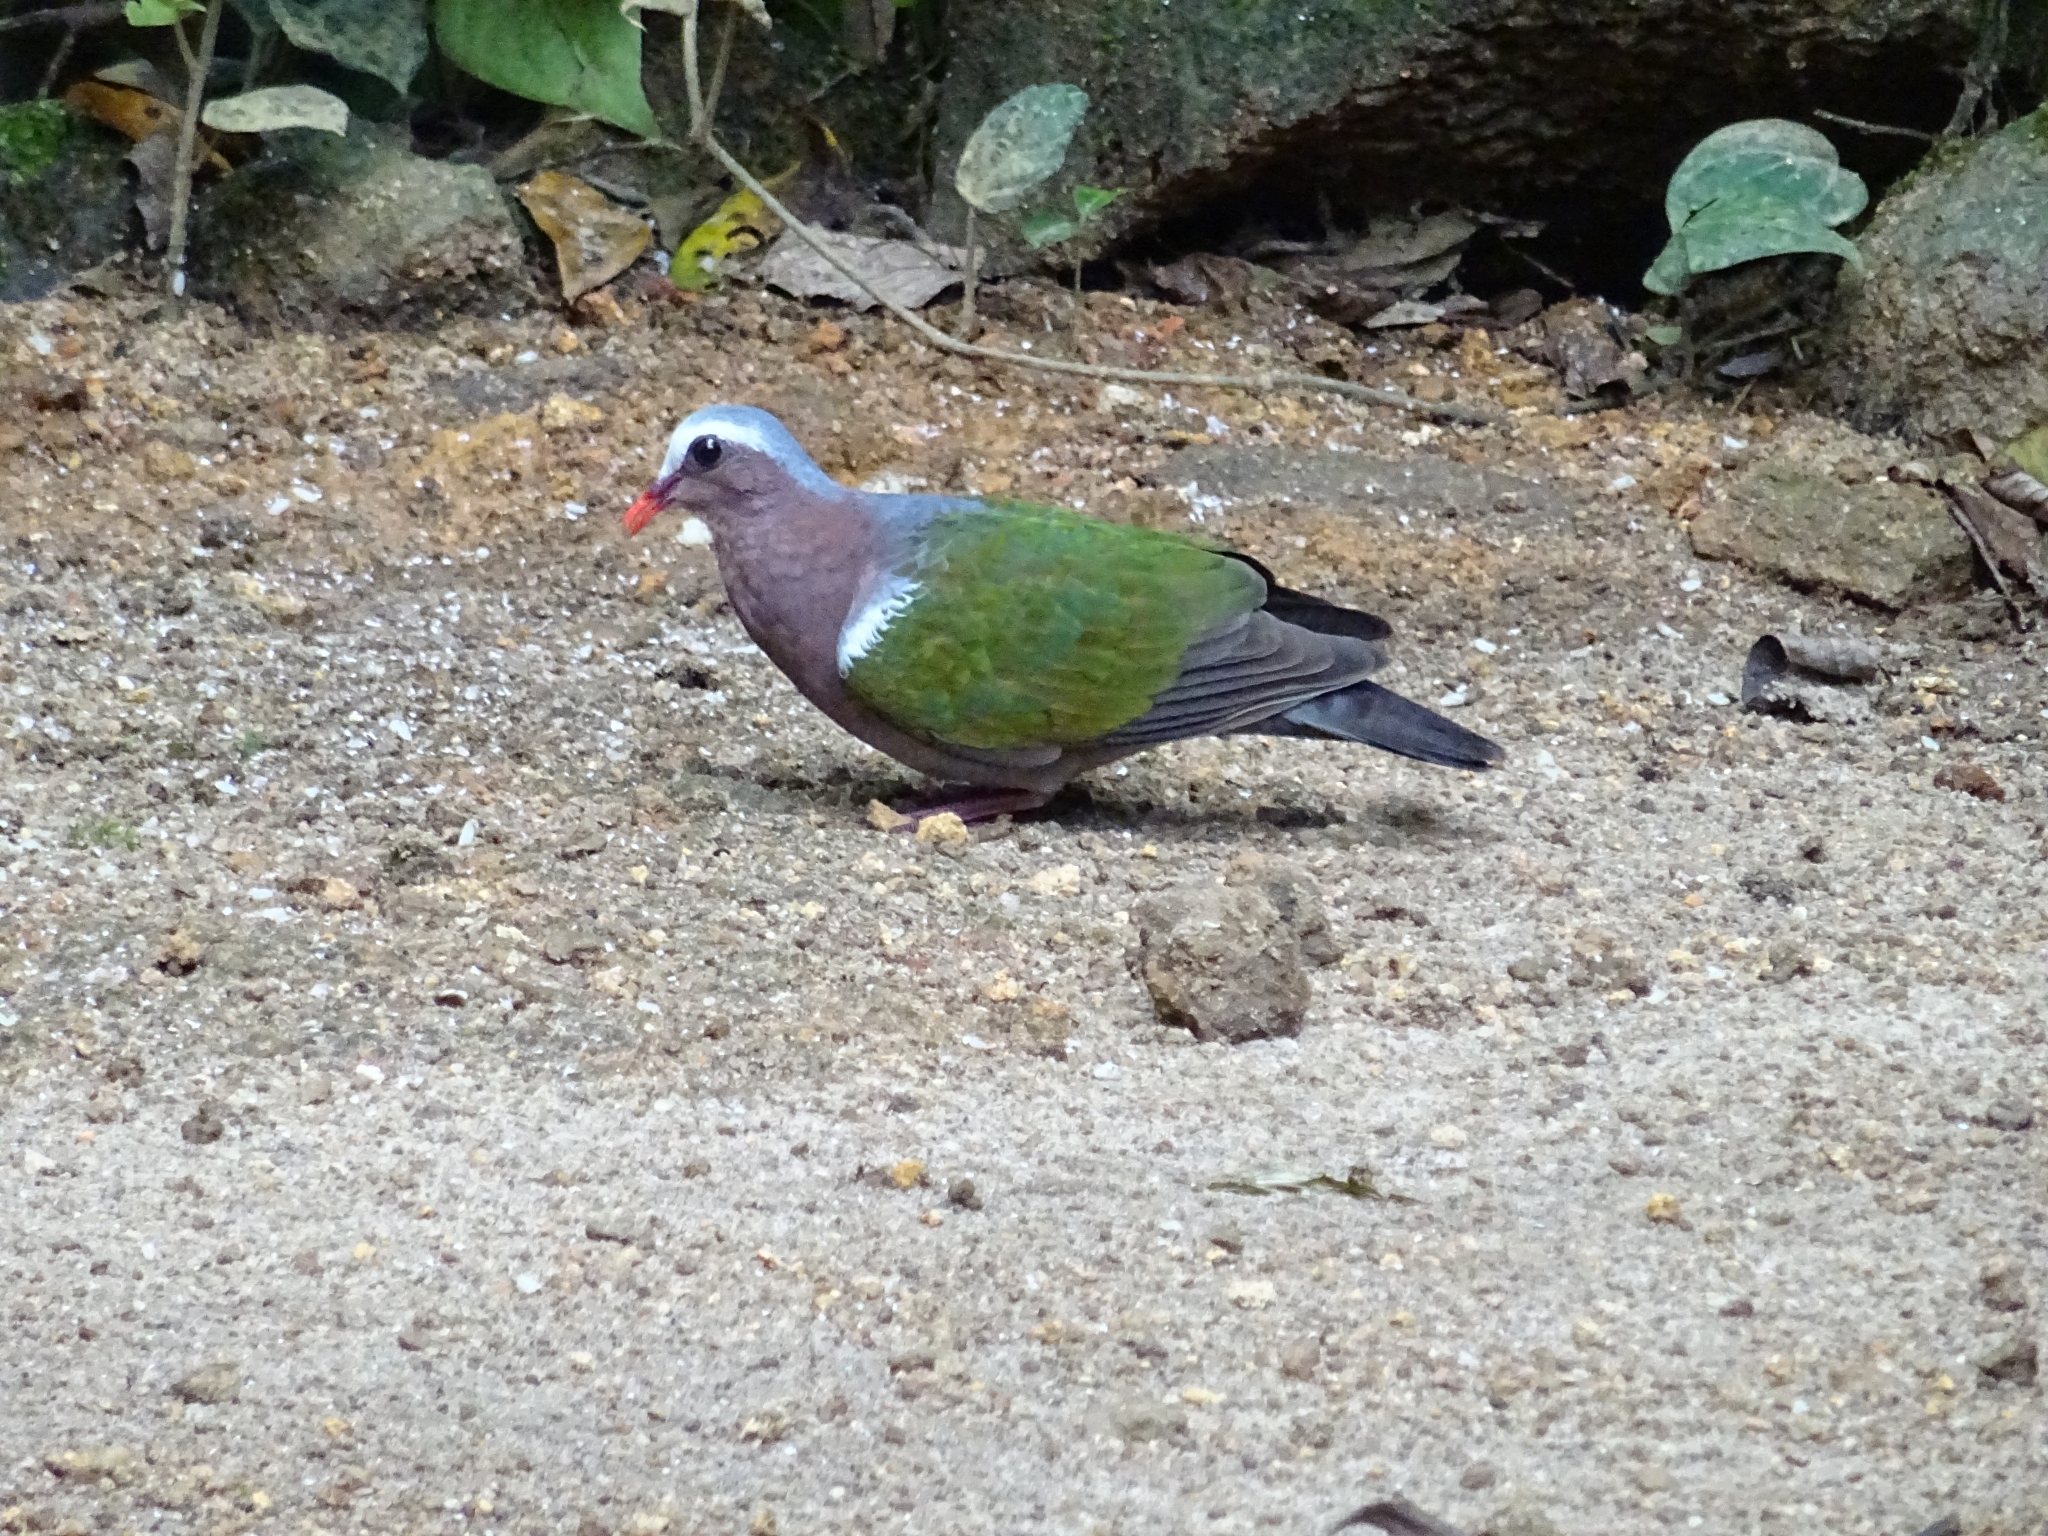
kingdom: Animalia
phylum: Chordata
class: Aves
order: Columbiformes
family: Columbidae
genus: Chalcophaps
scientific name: Chalcophaps indica
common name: Common emerald dove
